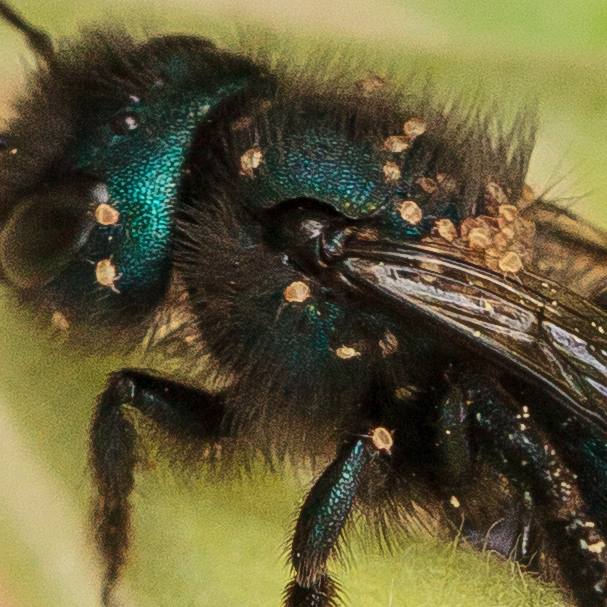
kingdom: Animalia
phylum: Arthropoda
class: Arachnida
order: Sarcoptiformes
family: Chaetodactylidae
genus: Chaetodactylus
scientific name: Chaetodactylus claudus
